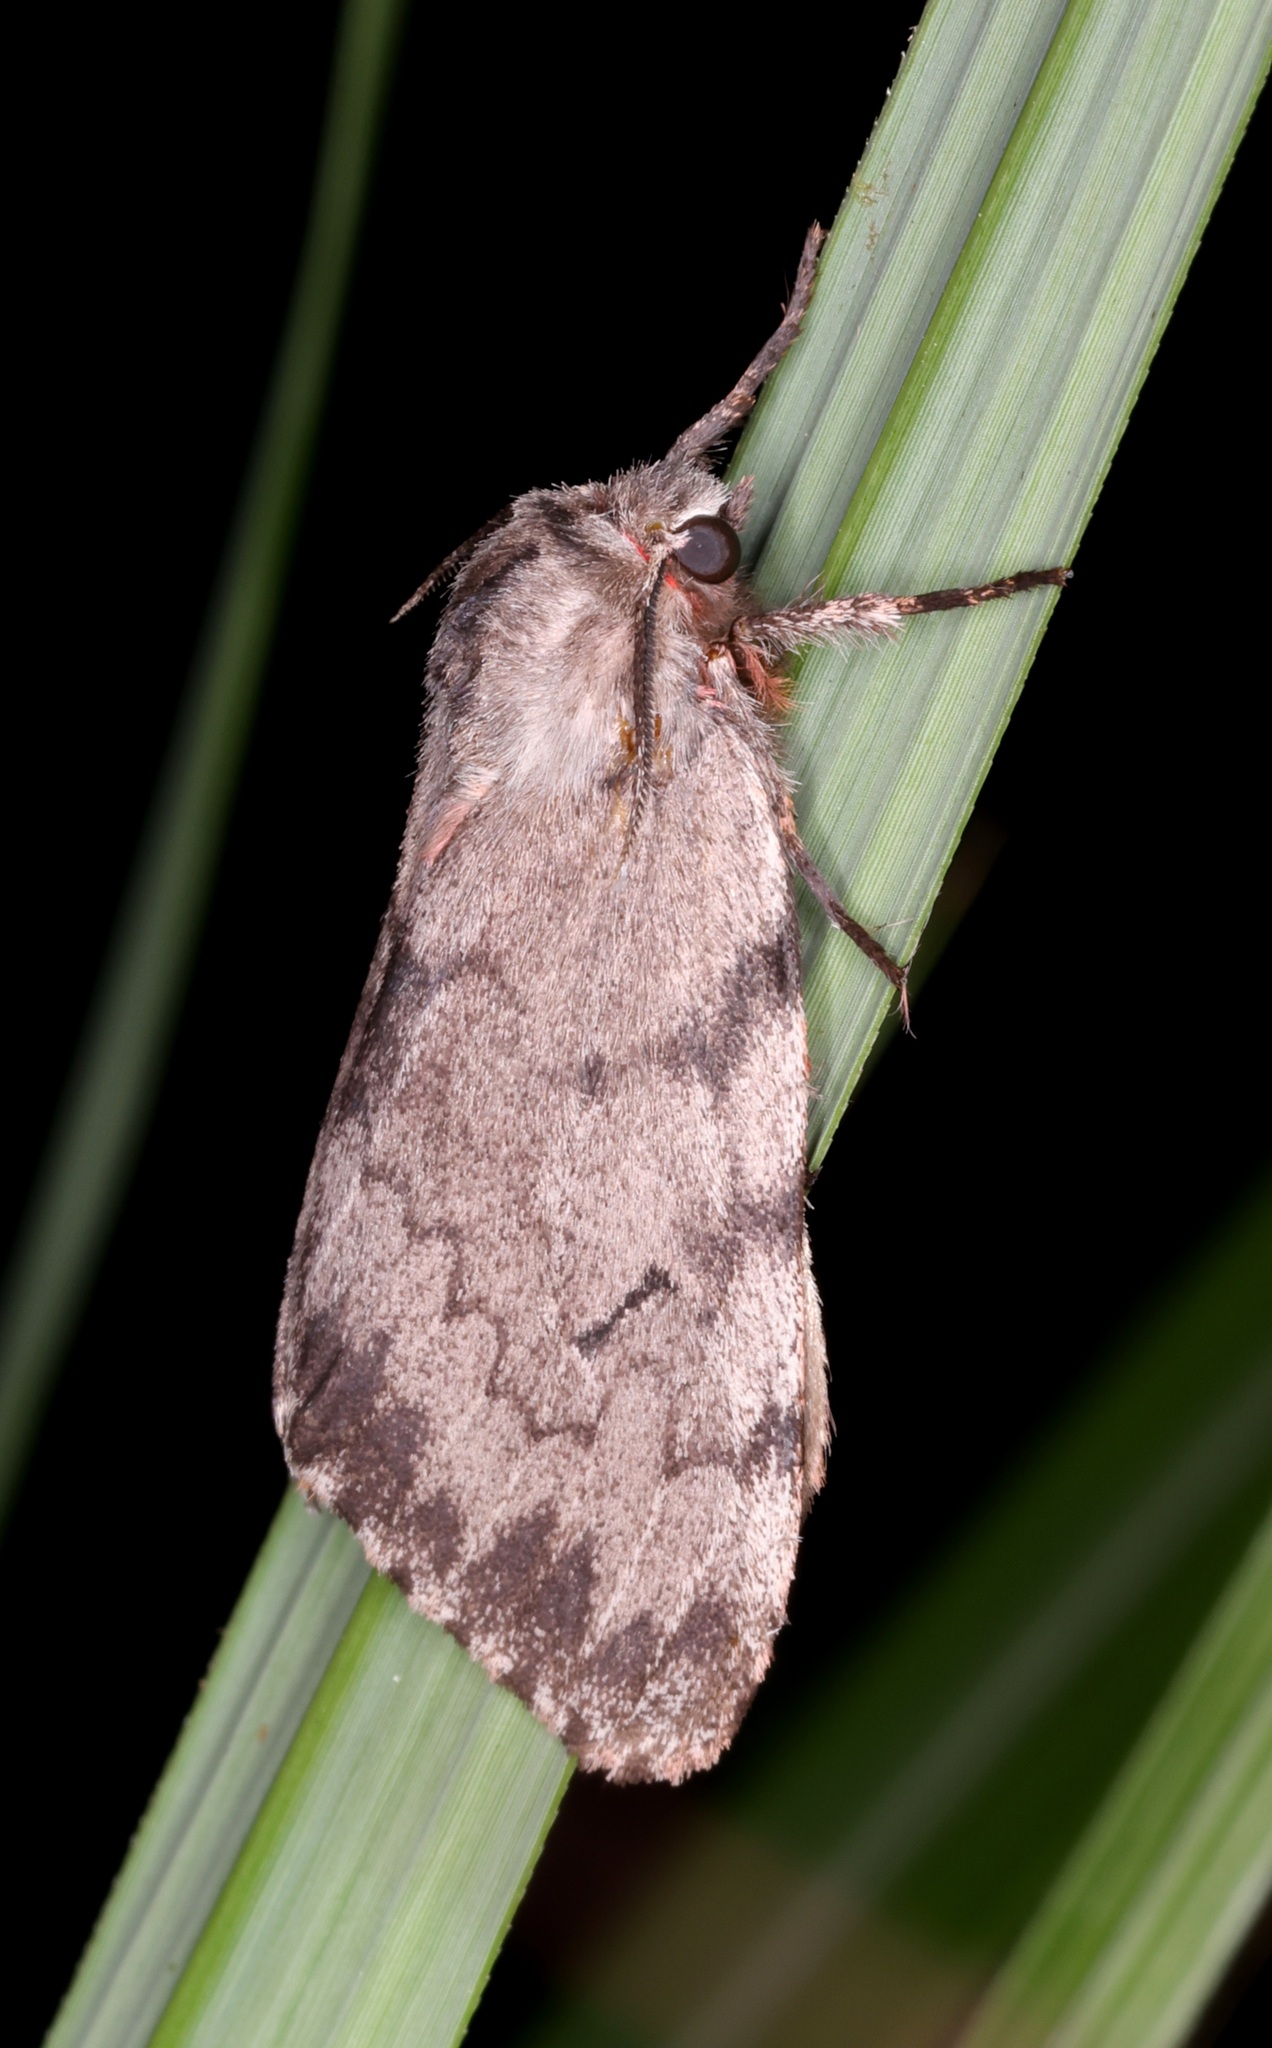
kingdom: Animalia
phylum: Arthropoda
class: Insecta
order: Lepidoptera
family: Erebidae
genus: Lymantria
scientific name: Lymantria dissoluta
